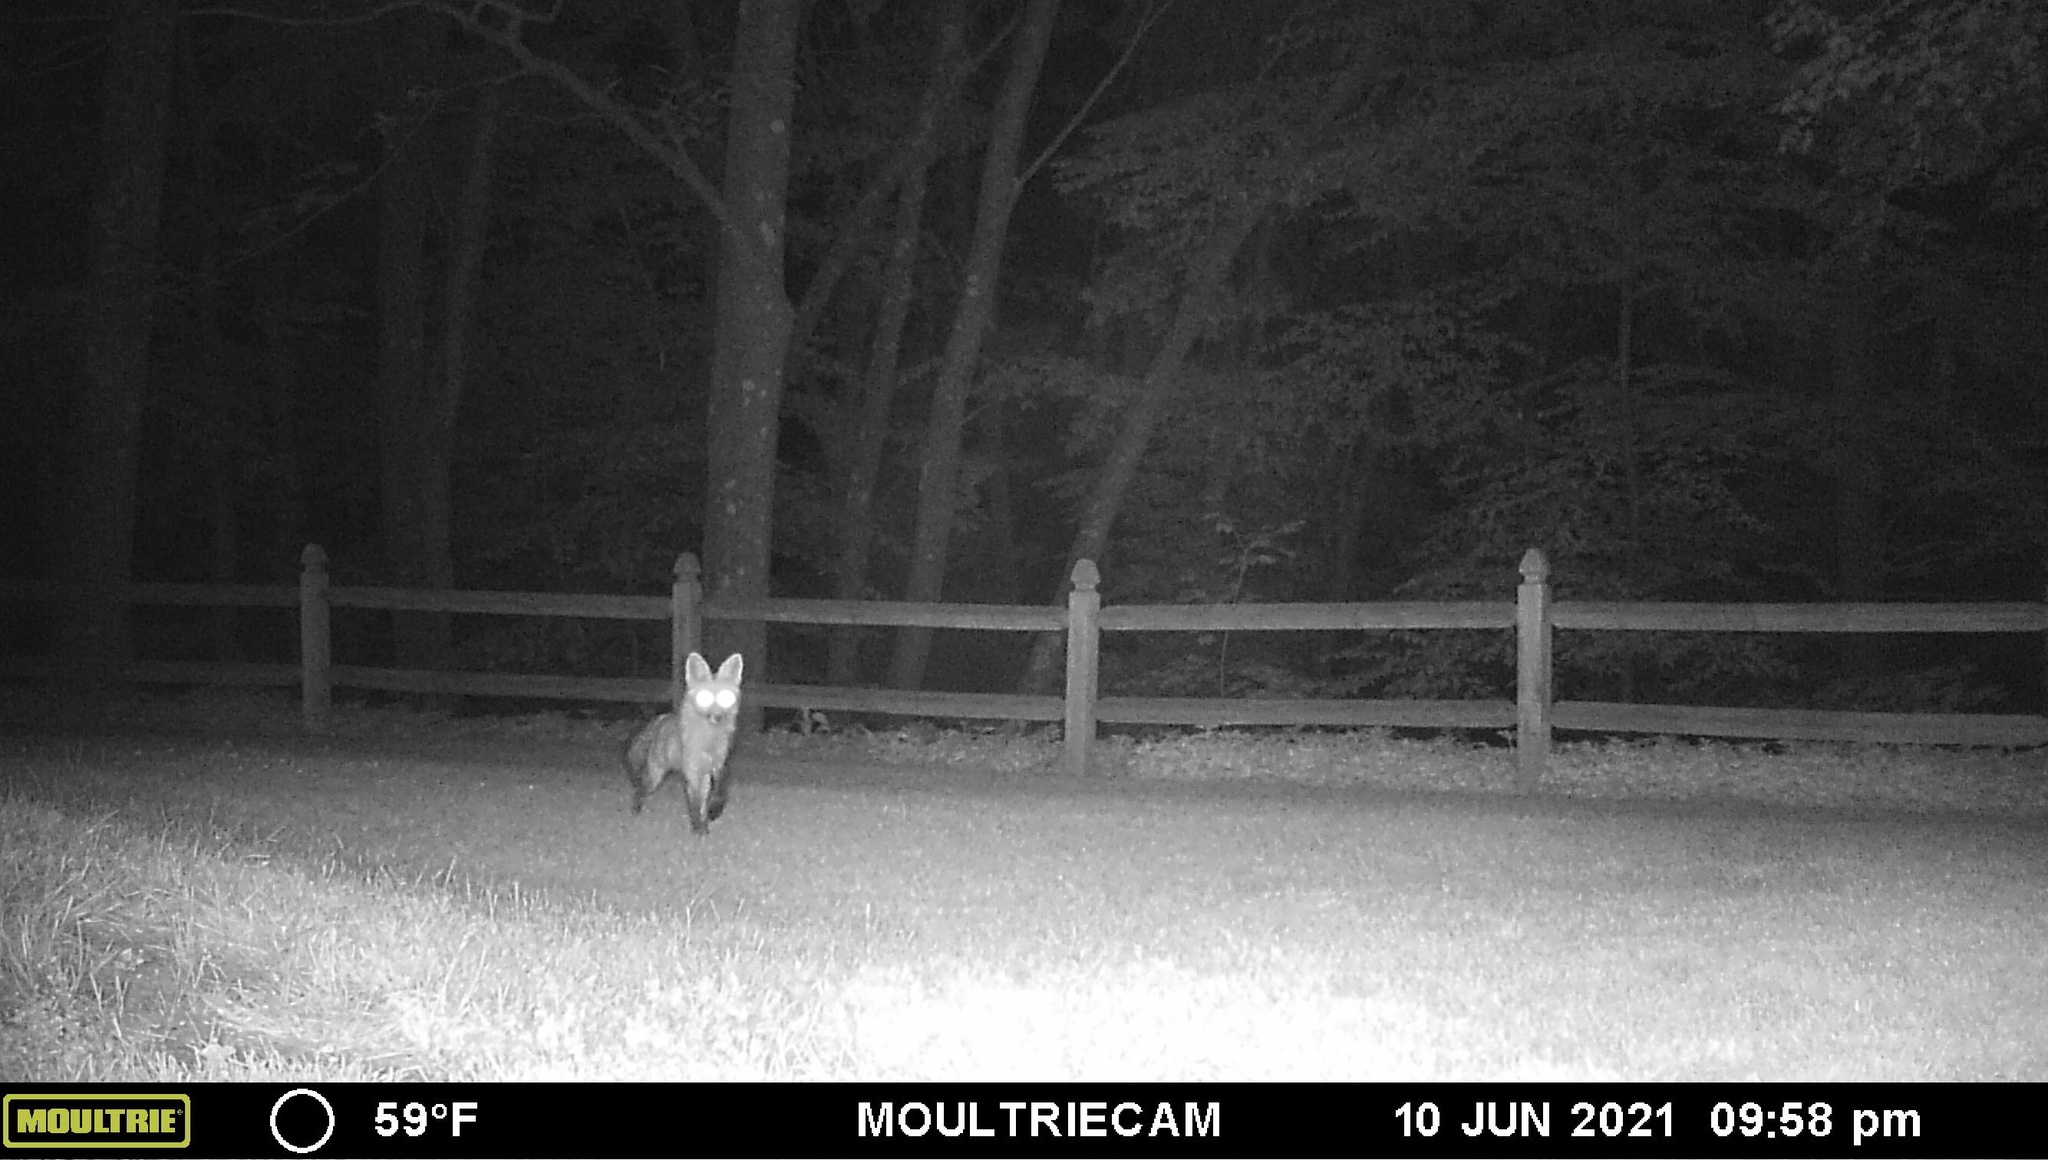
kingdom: Animalia
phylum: Chordata
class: Mammalia
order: Carnivora
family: Canidae
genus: Vulpes
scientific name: Vulpes vulpes
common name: Red fox
